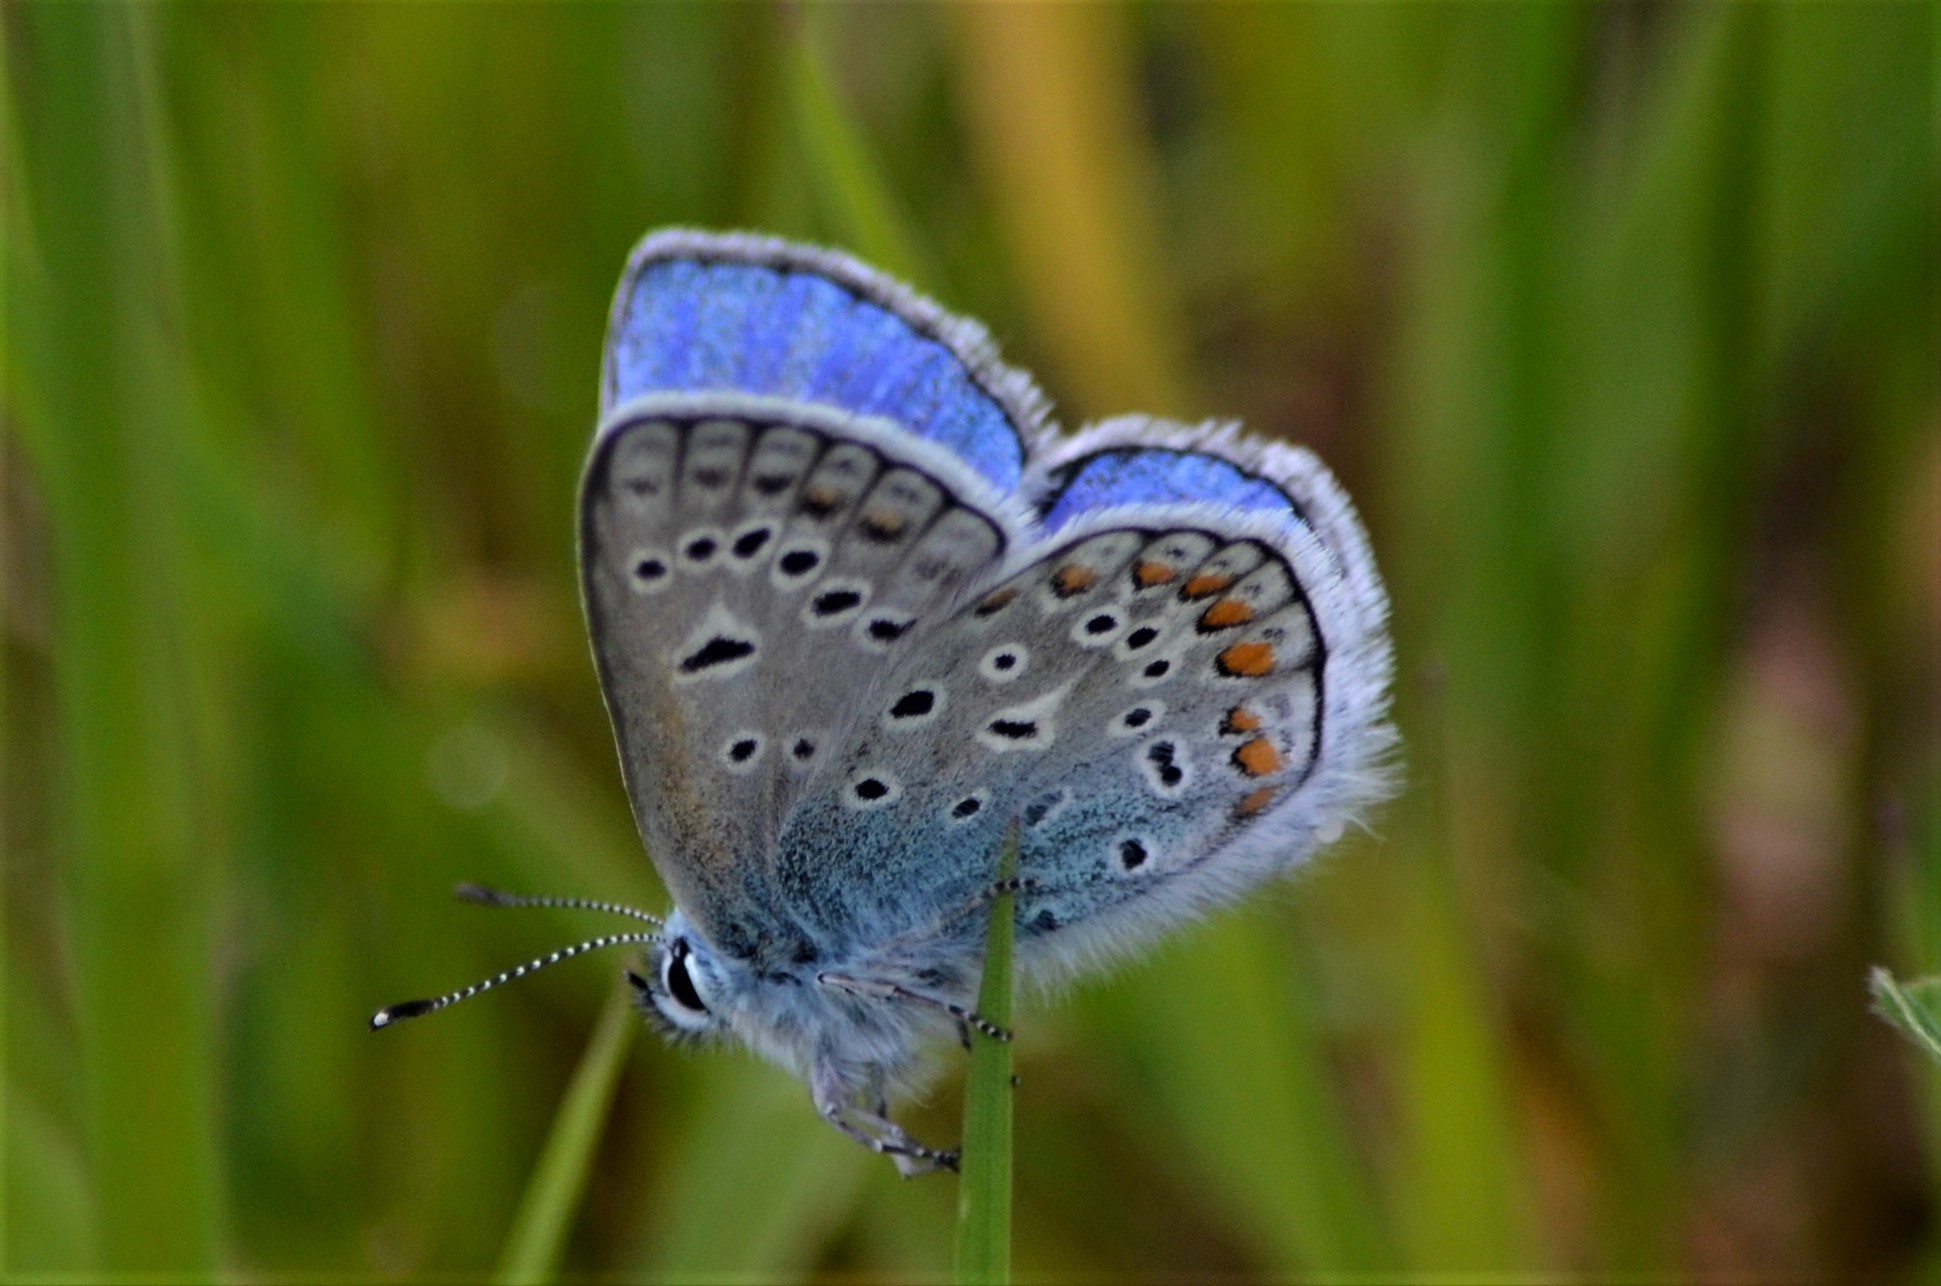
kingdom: Animalia
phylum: Arthropoda
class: Insecta
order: Lepidoptera
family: Lycaenidae
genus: Polyommatus
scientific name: Polyommatus icarus
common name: Common blue
